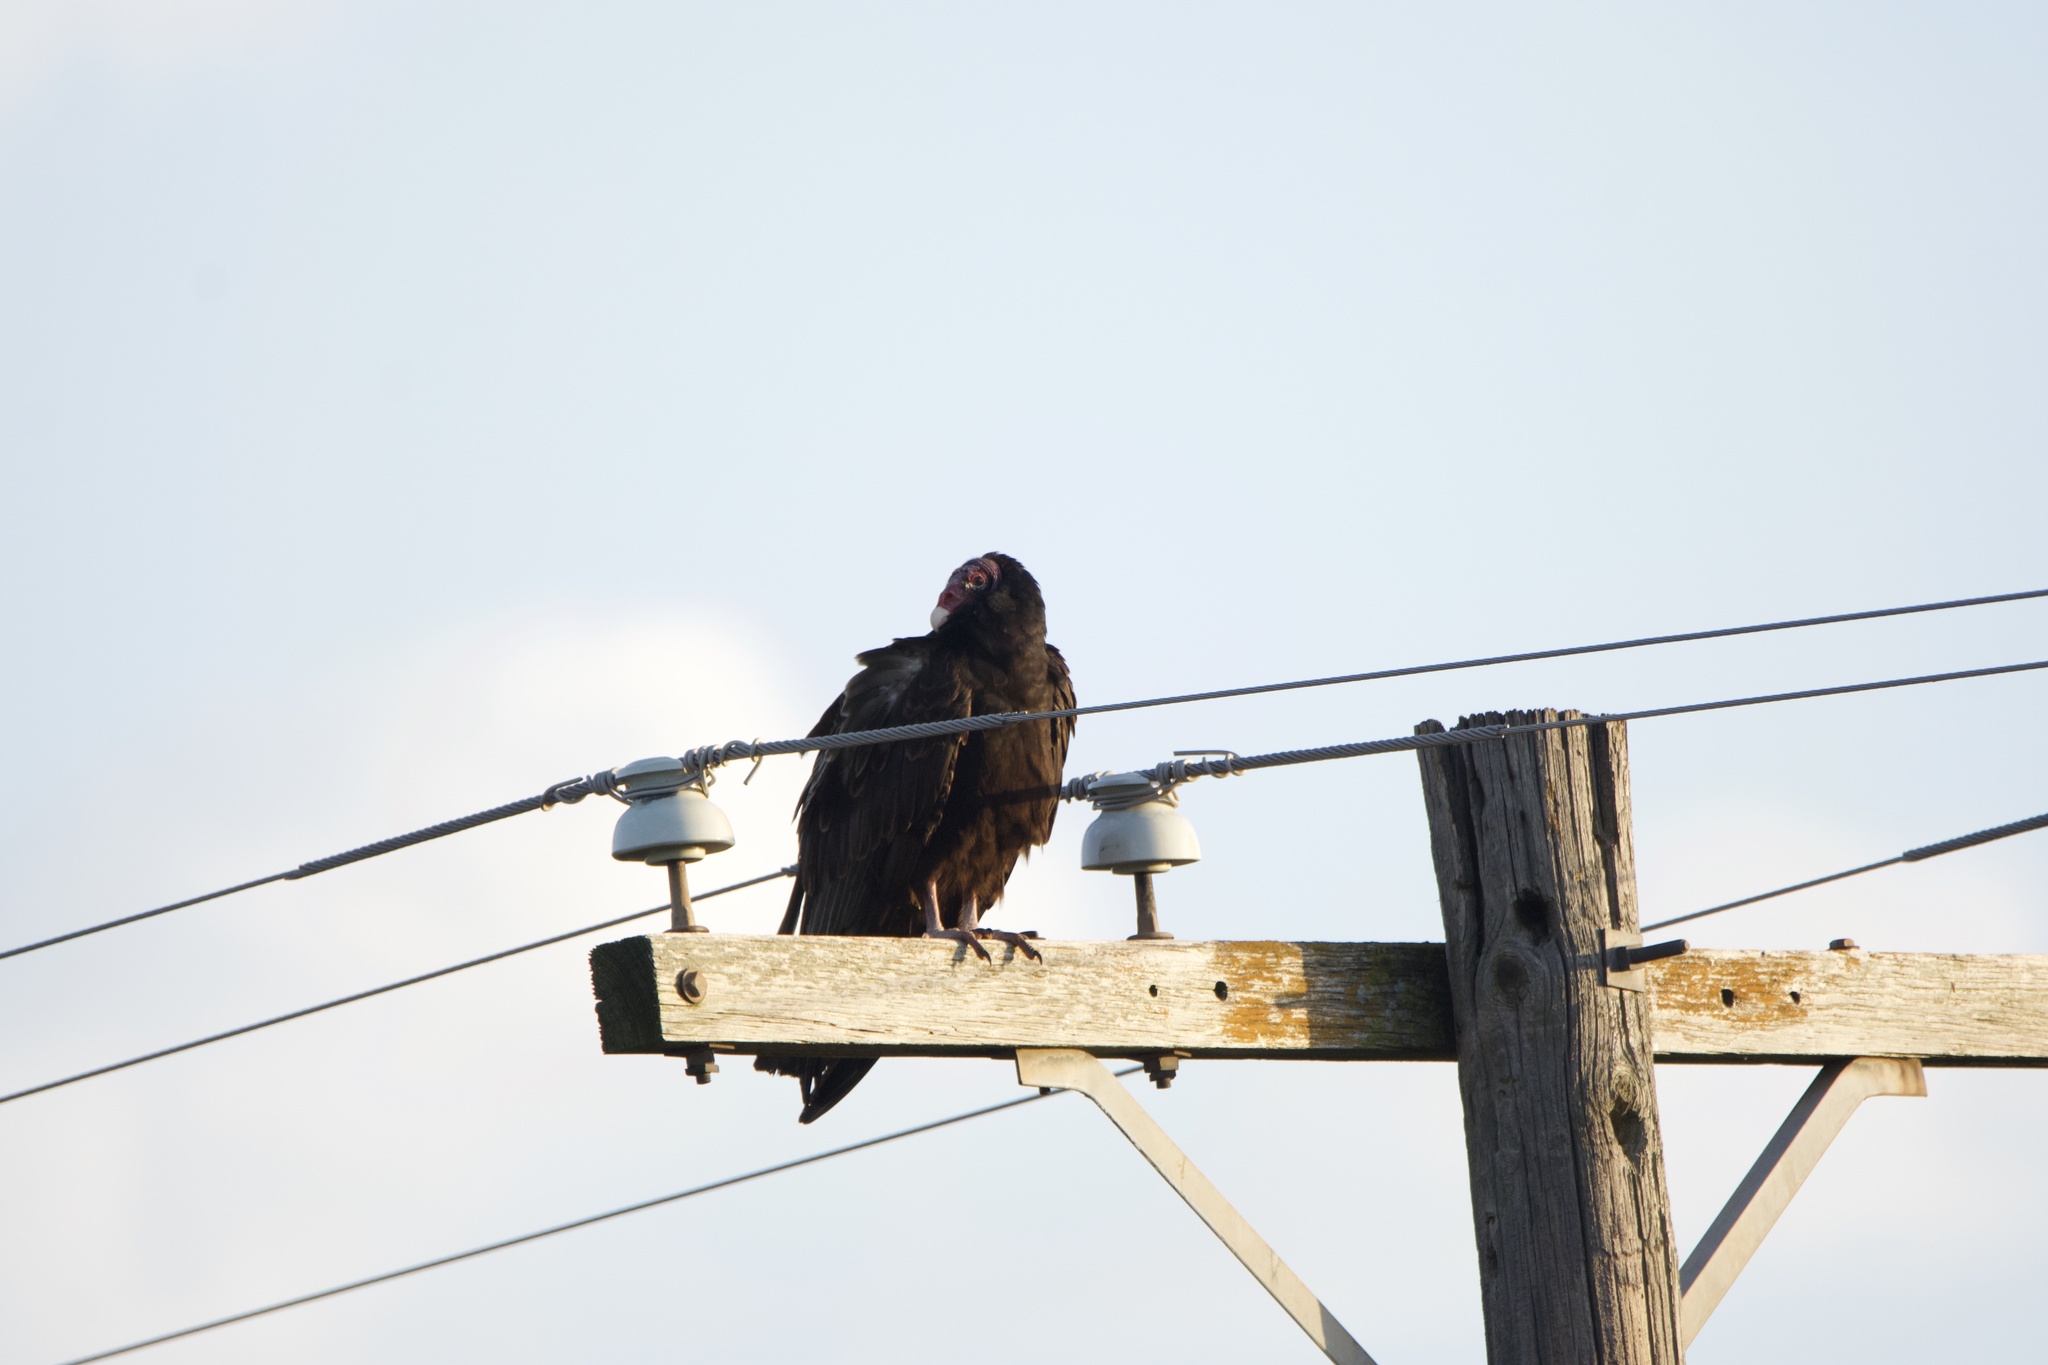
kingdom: Animalia
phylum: Chordata
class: Aves
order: Accipitriformes
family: Cathartidae
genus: Cathartes
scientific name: Cathartes aura
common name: Turkey vulture
